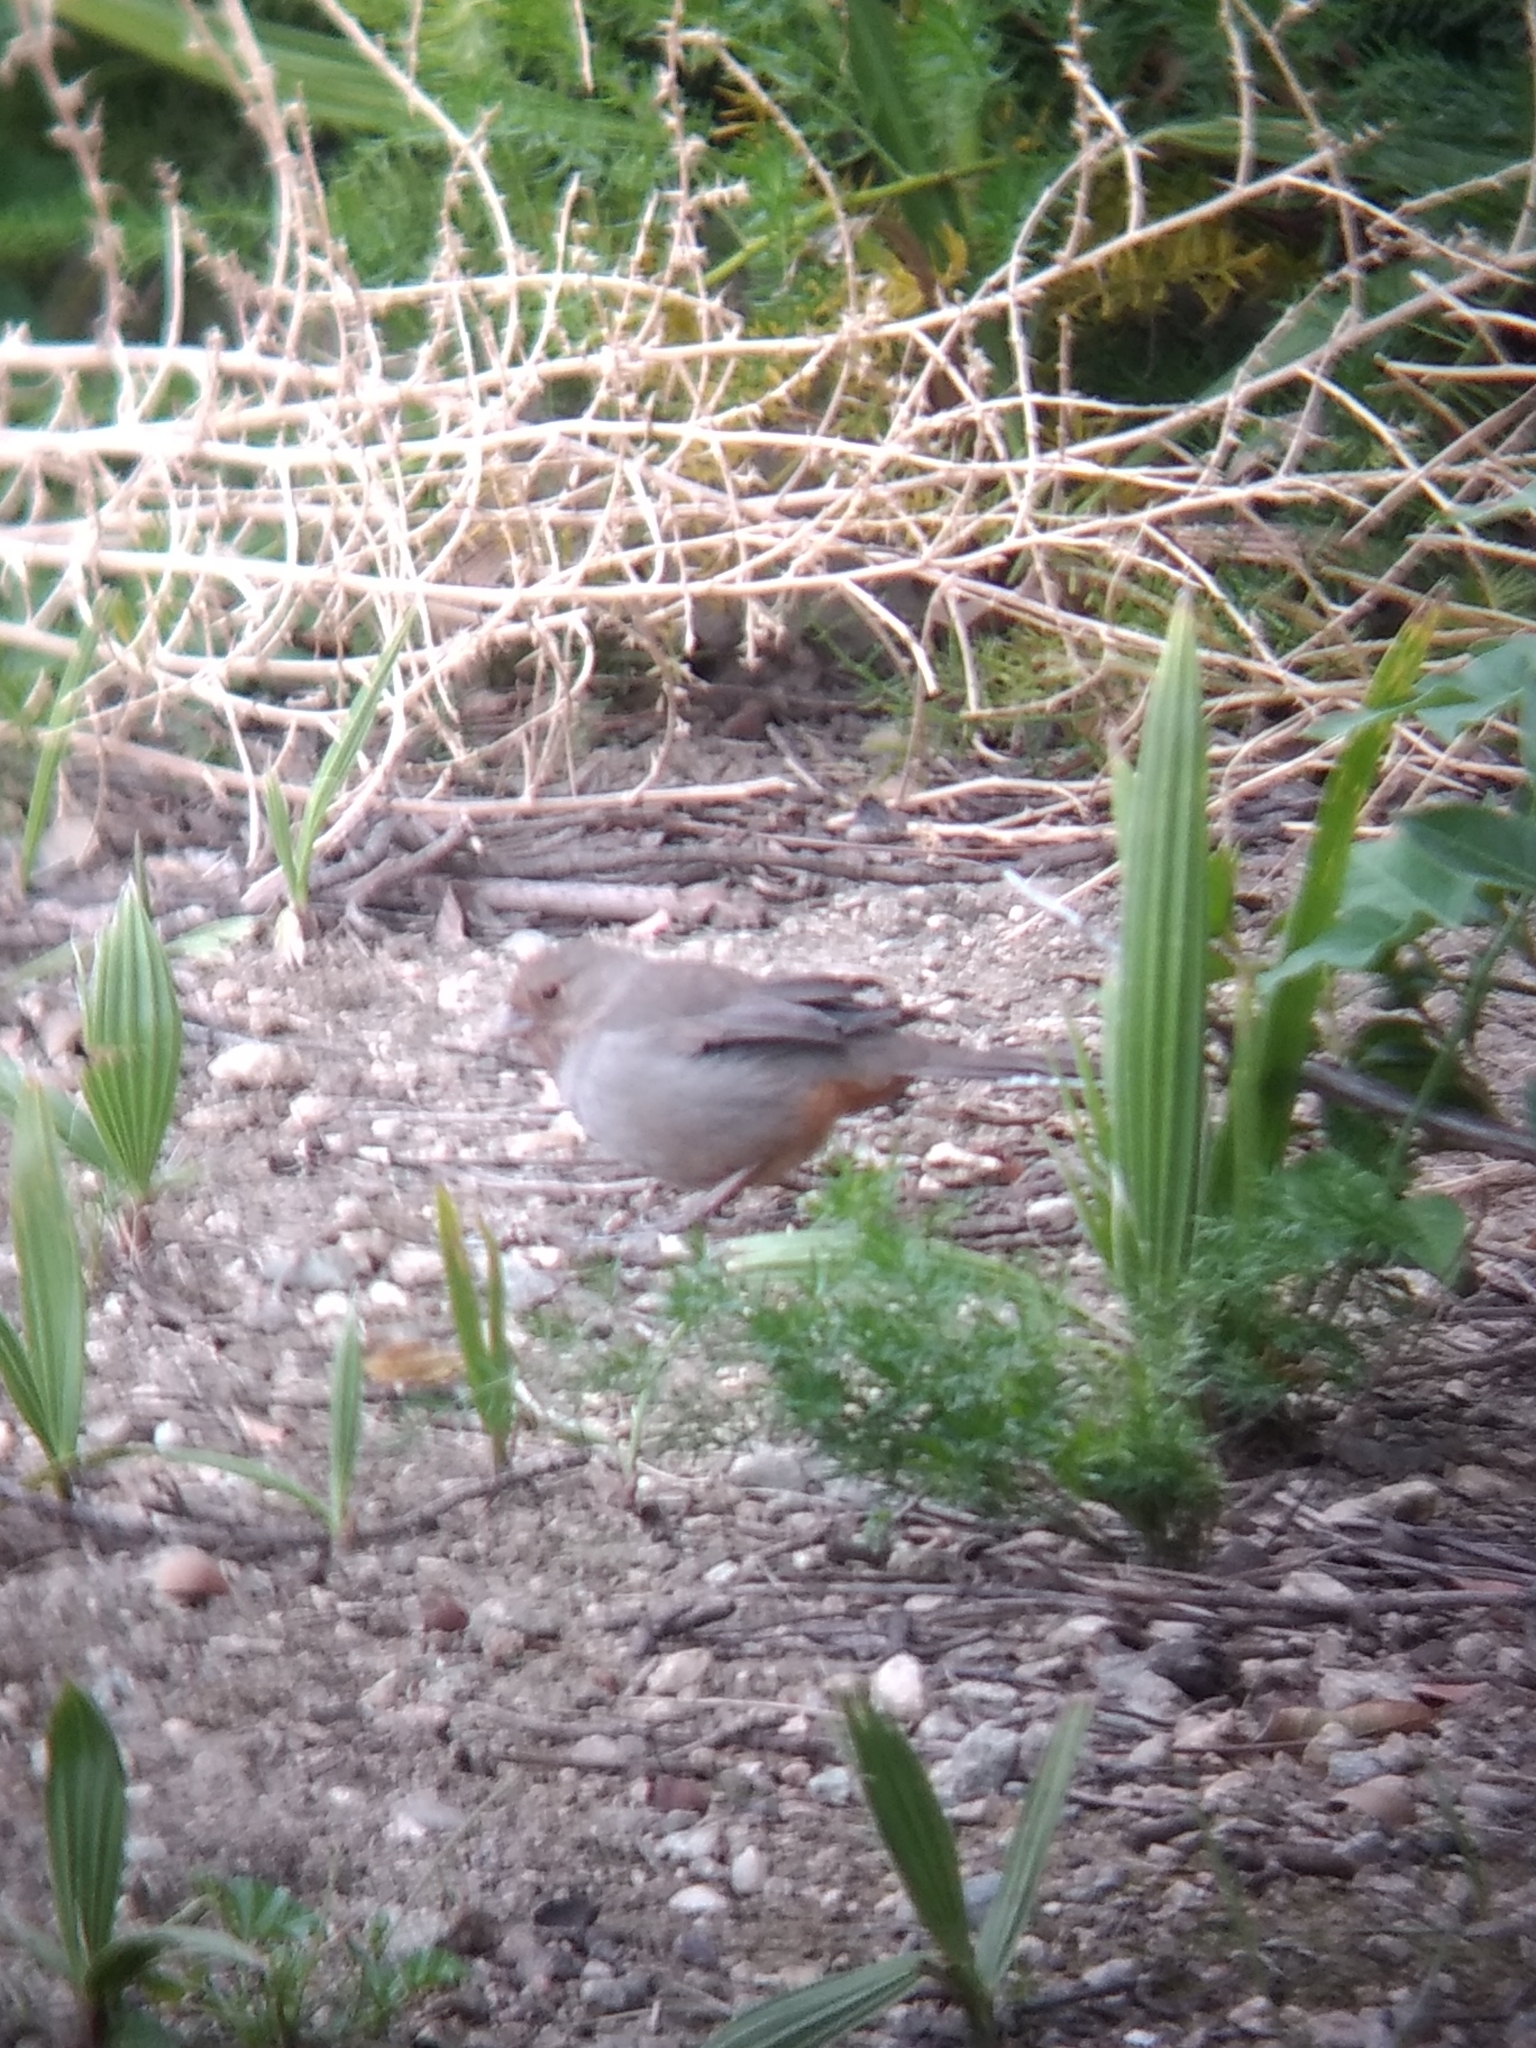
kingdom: Animalia
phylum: Chordata
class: Aves
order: Passeriformes
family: Passerellidae
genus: Melozone
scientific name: Melozone crissalis
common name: California towhee
